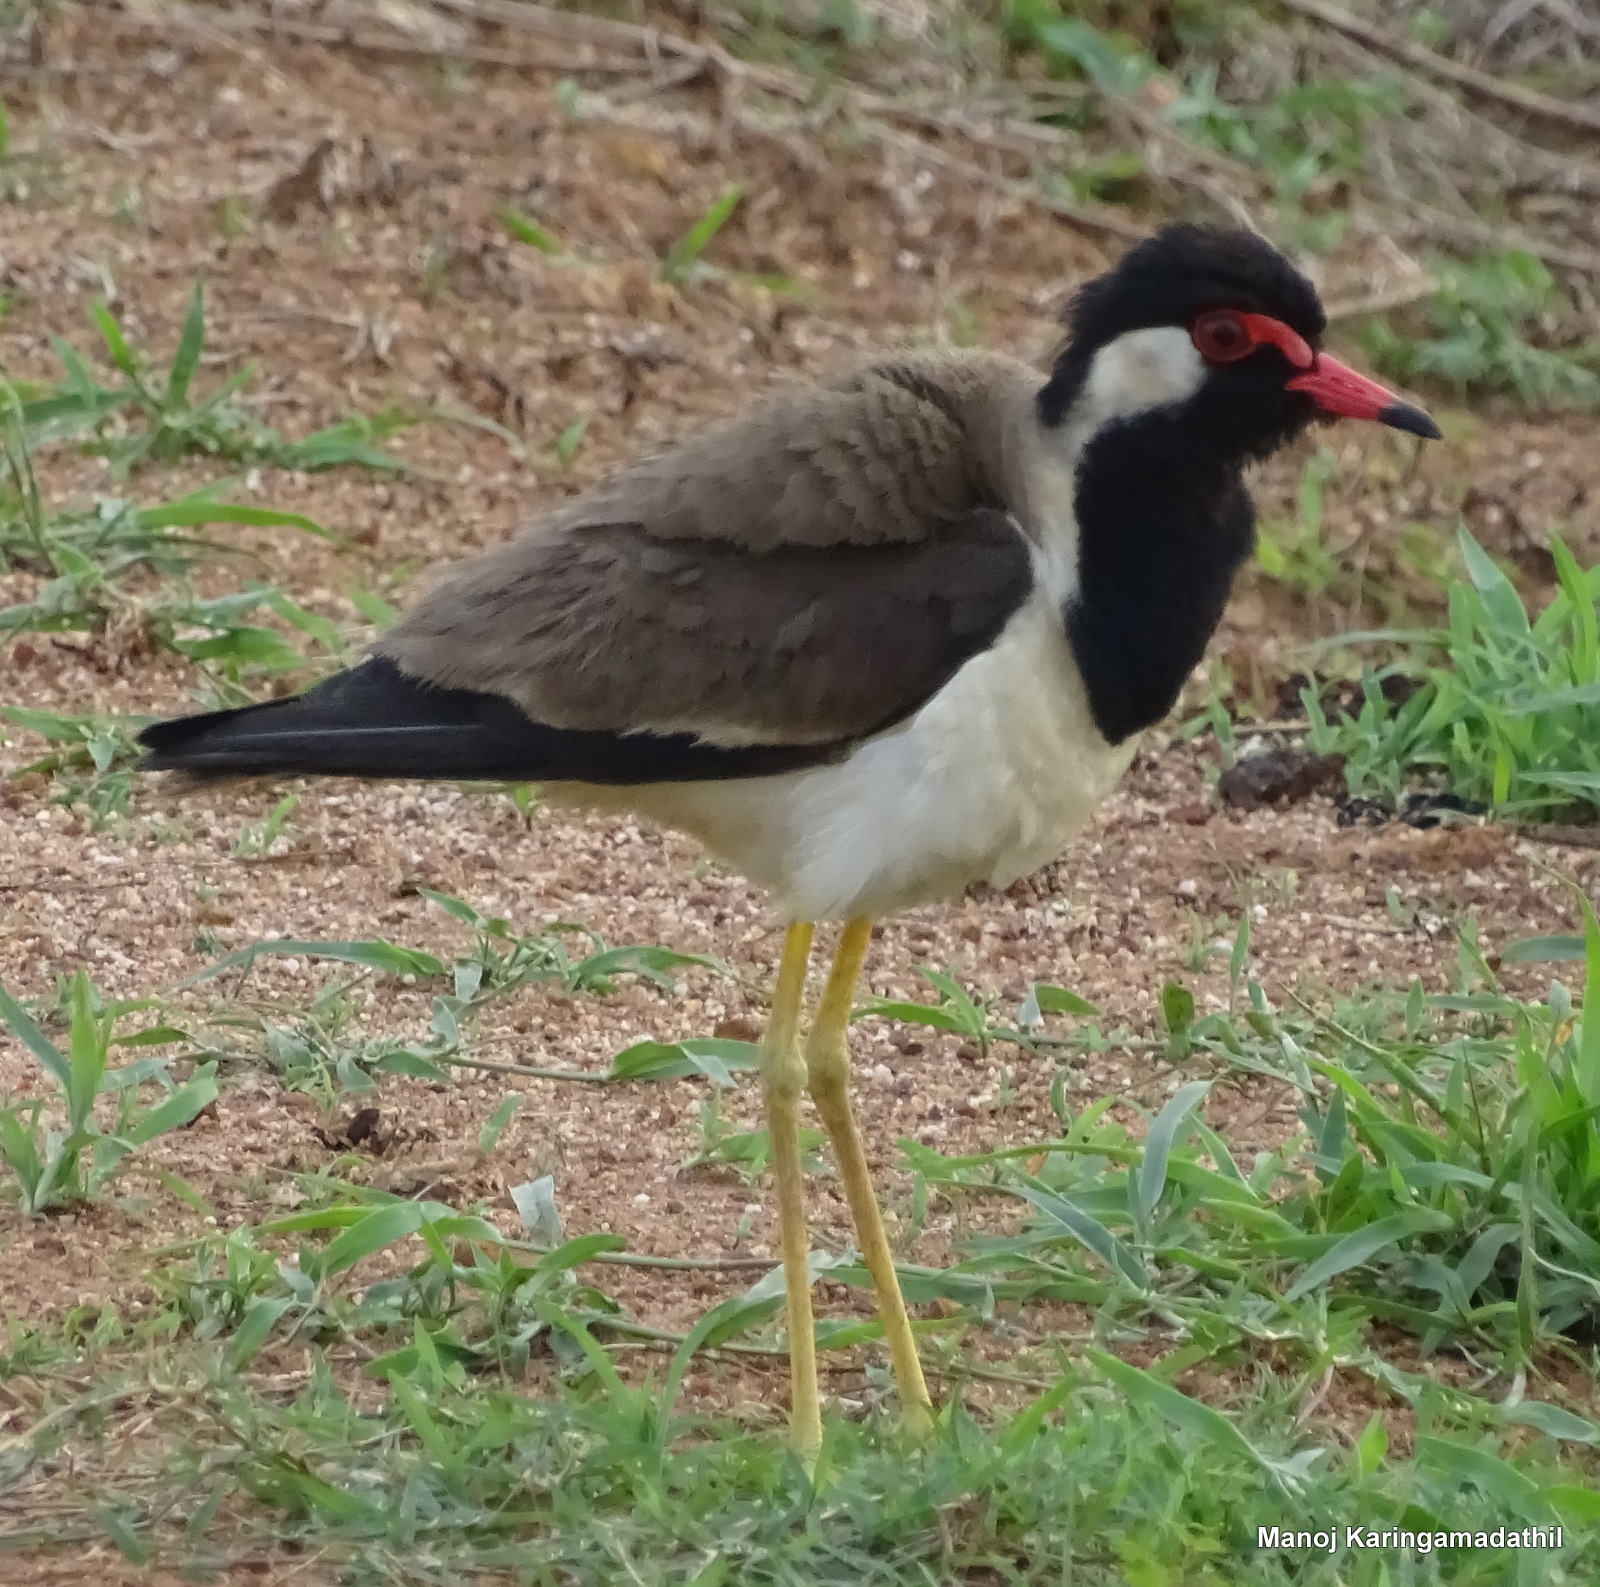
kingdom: Animalia
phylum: Chordata
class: Aves
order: Charadriiformes
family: Charadriidae
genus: Vanellus
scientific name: Vanellus indicus
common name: Red-wattled lapwing
